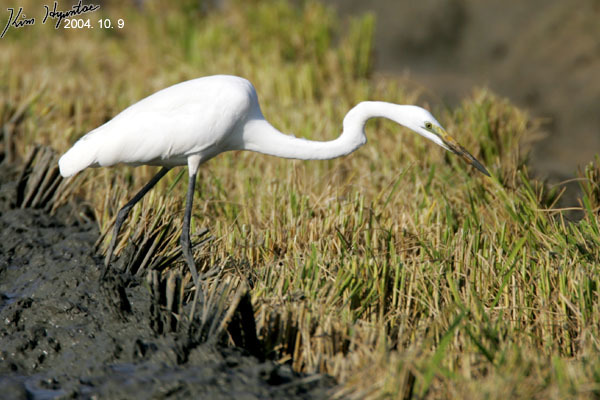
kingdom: Animalia
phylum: Chordata
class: Aves
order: Pelecaniformes
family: Ardeidae
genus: Ardea
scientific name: Ardea alba
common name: Great egret
